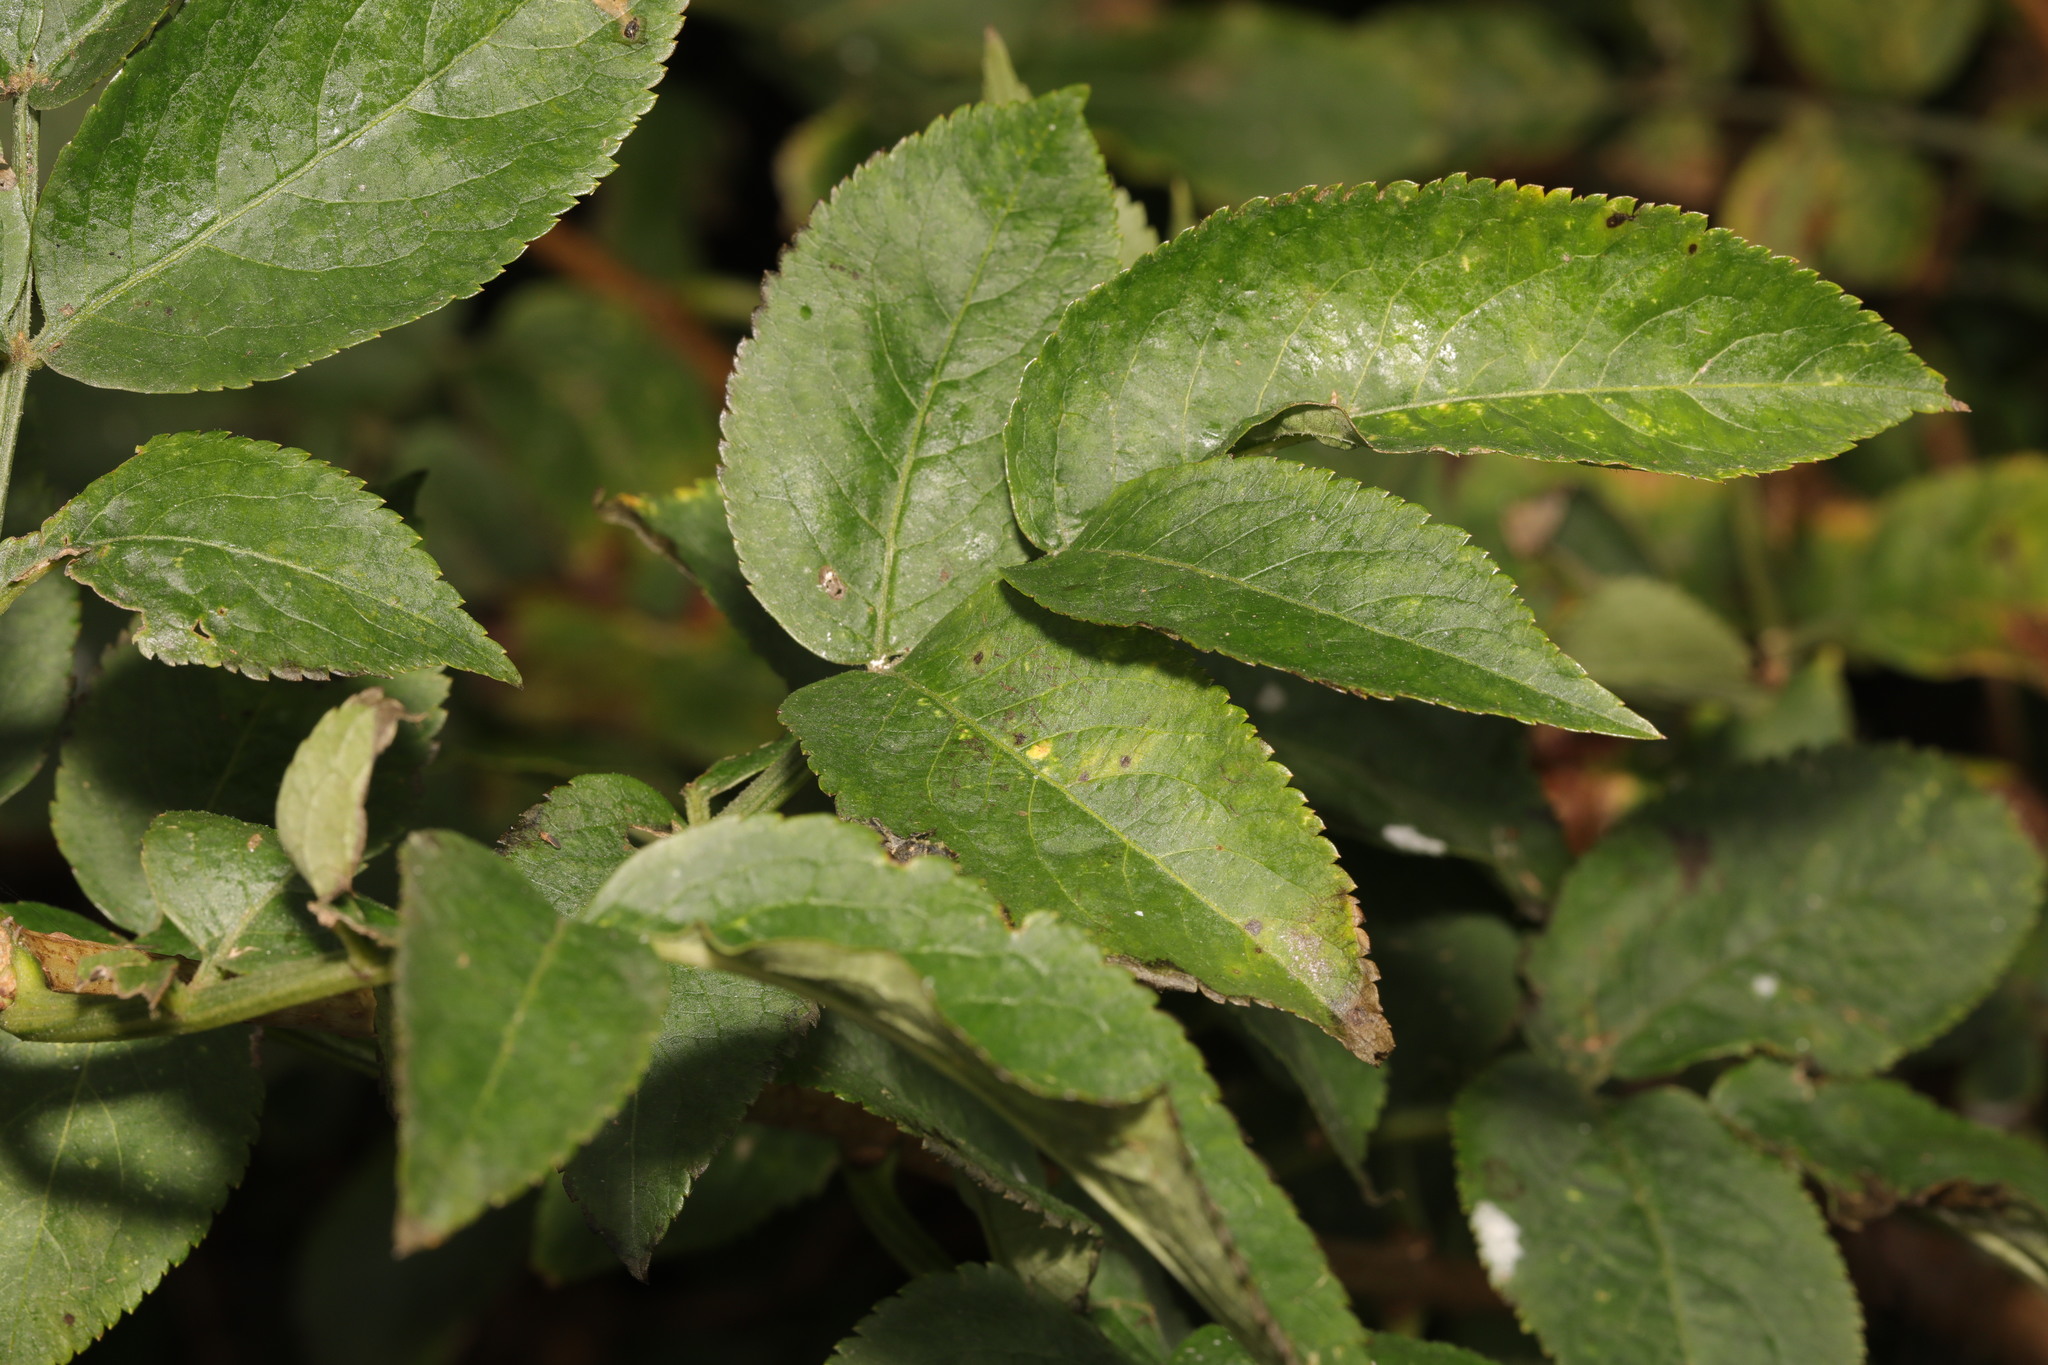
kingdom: Plantae
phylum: Tracheophyta
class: Magnoliopsida
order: Dipsacales
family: Viburnaceae
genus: Sambucus
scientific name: Sambucus nigra
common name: Elder
